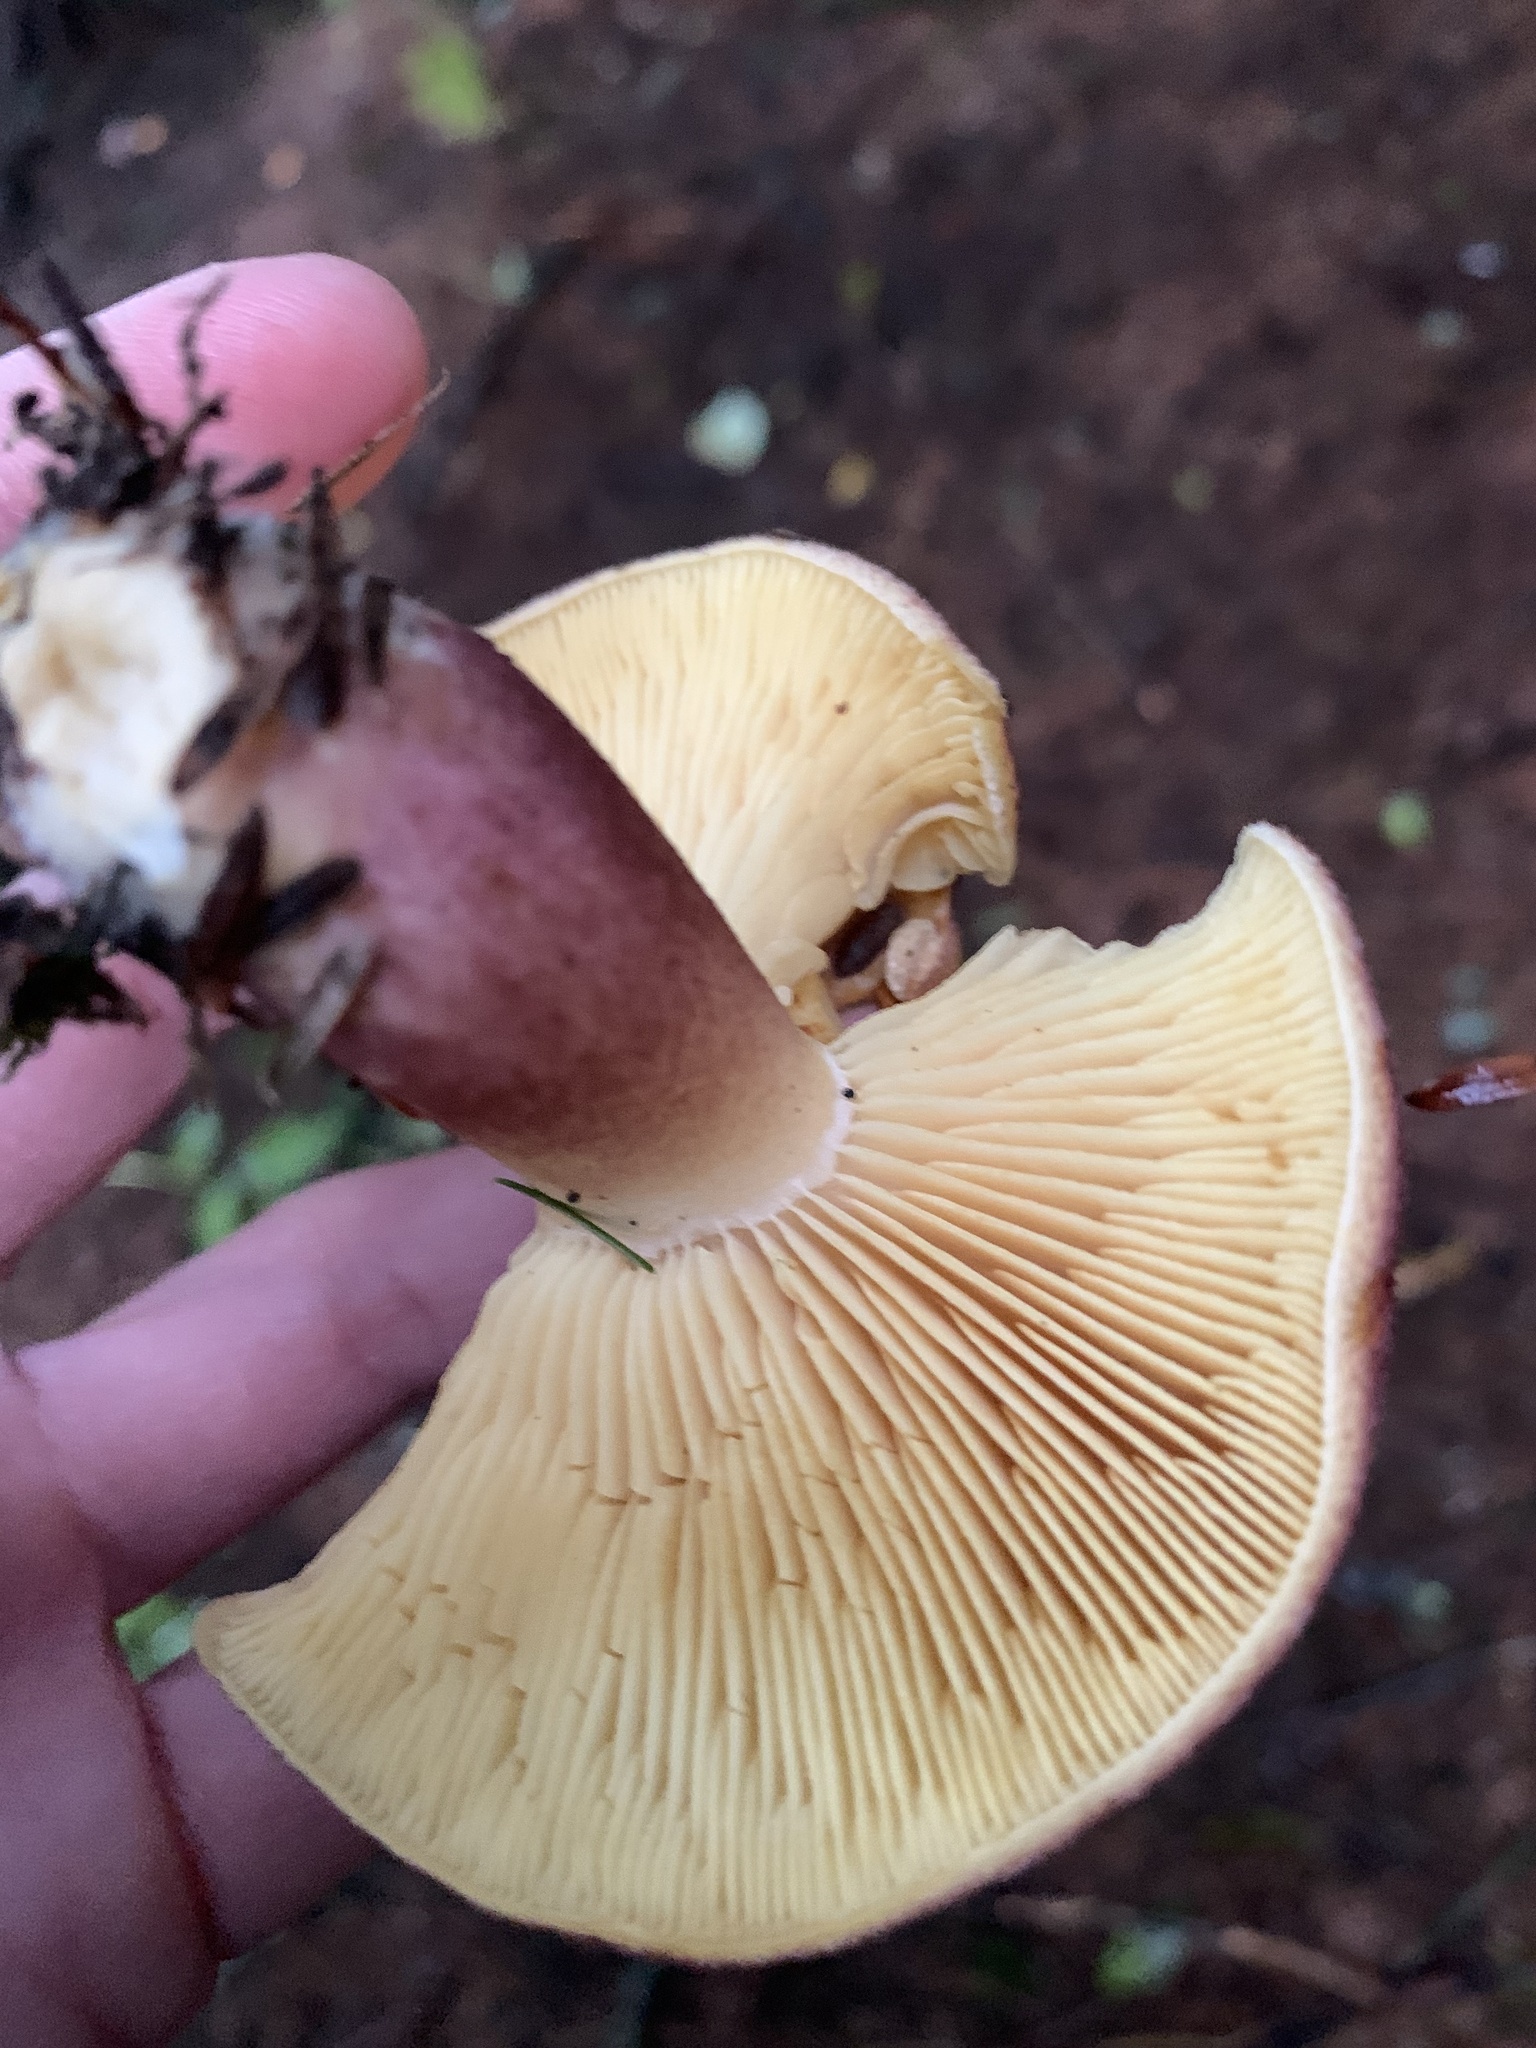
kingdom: Fungi
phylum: Basidiomycota
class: Agaricomycetes
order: Agaricales
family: Tricholomataceae
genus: Tricholomopsis
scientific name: Tricholomopsis rutilans
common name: Plums and custard
